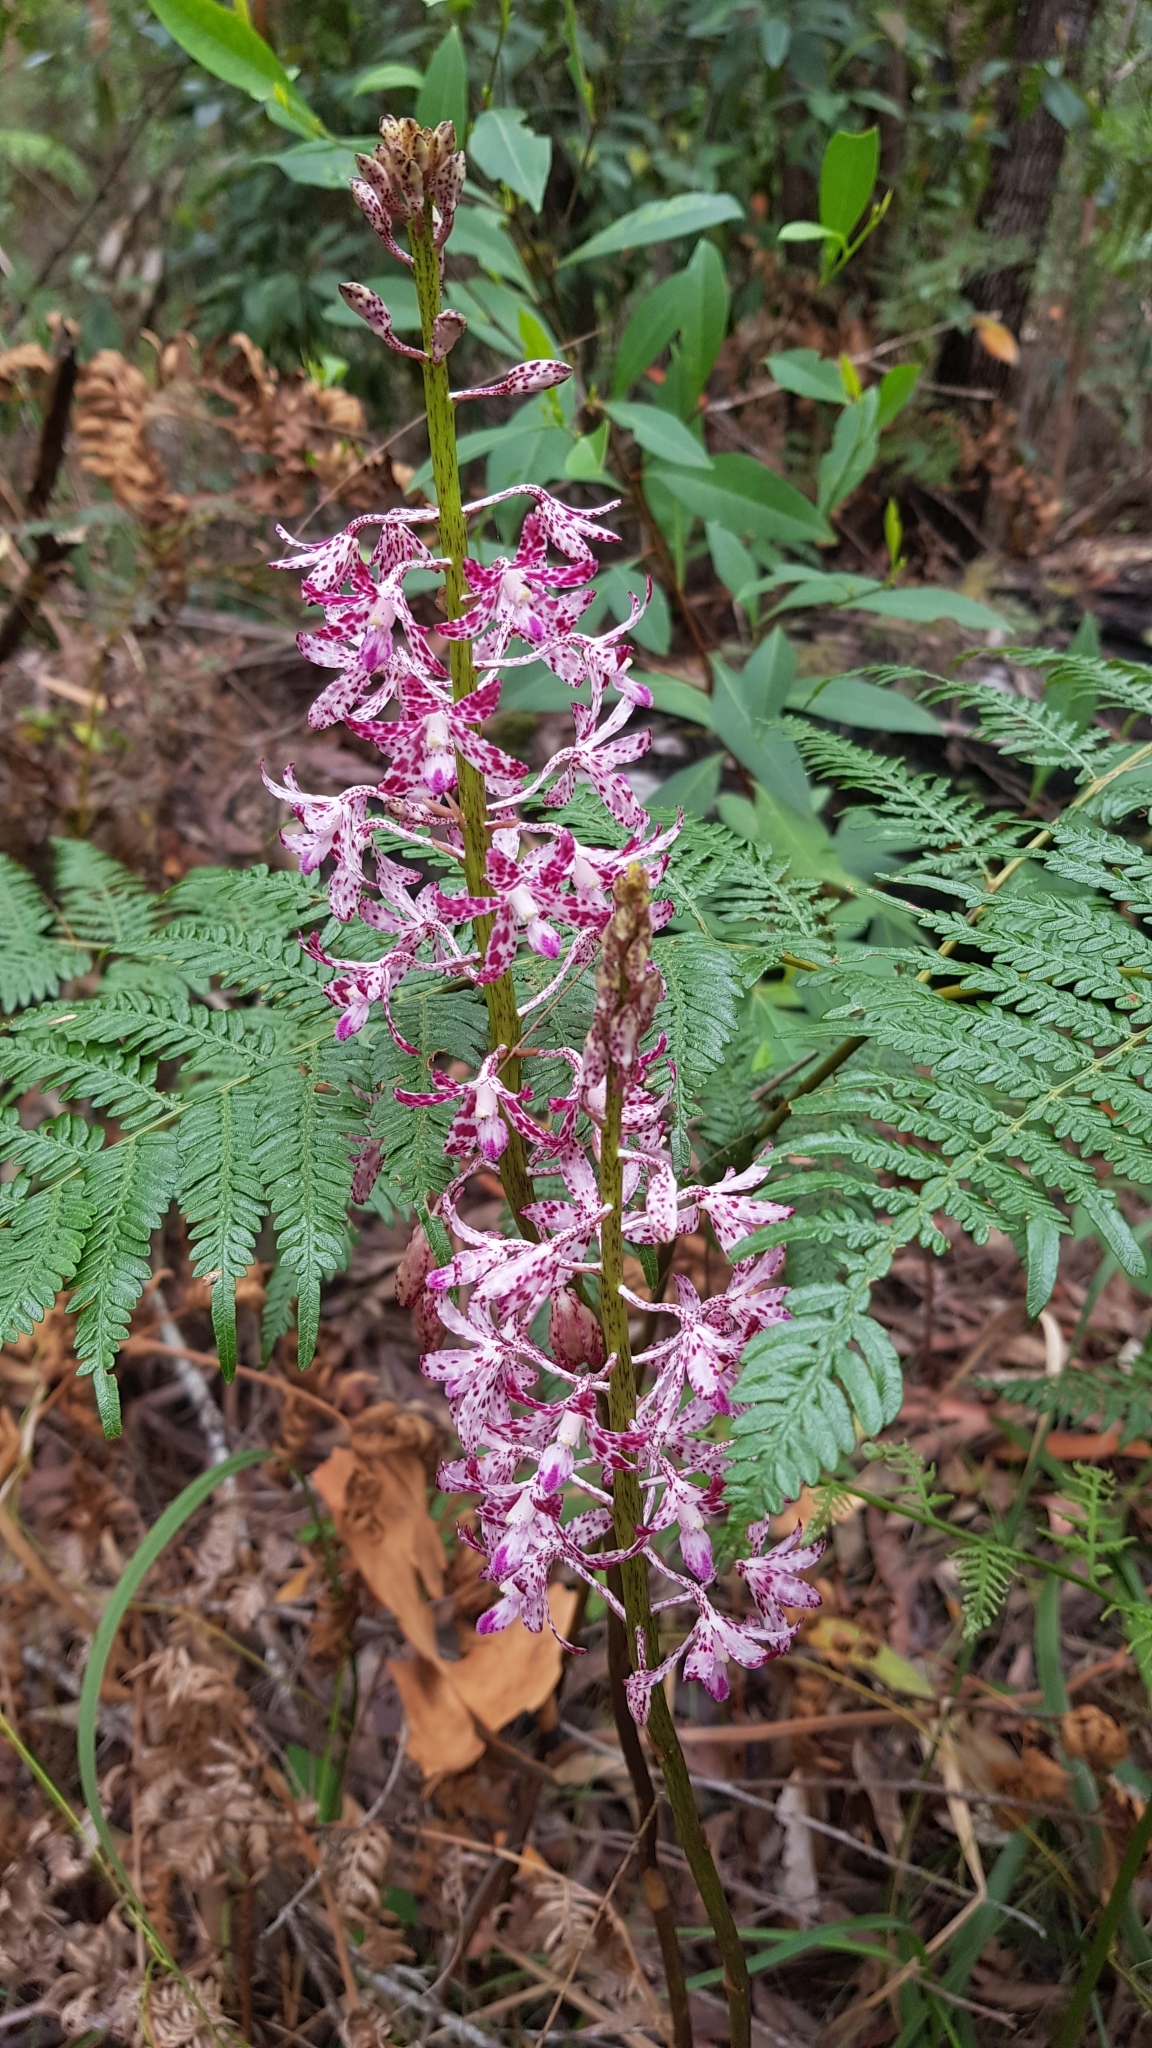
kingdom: Plantae
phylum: Tracheophyta
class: Liliopsida
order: Asparagales
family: Orchidaceae
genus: Dipodium
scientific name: Dipodium variegatum
